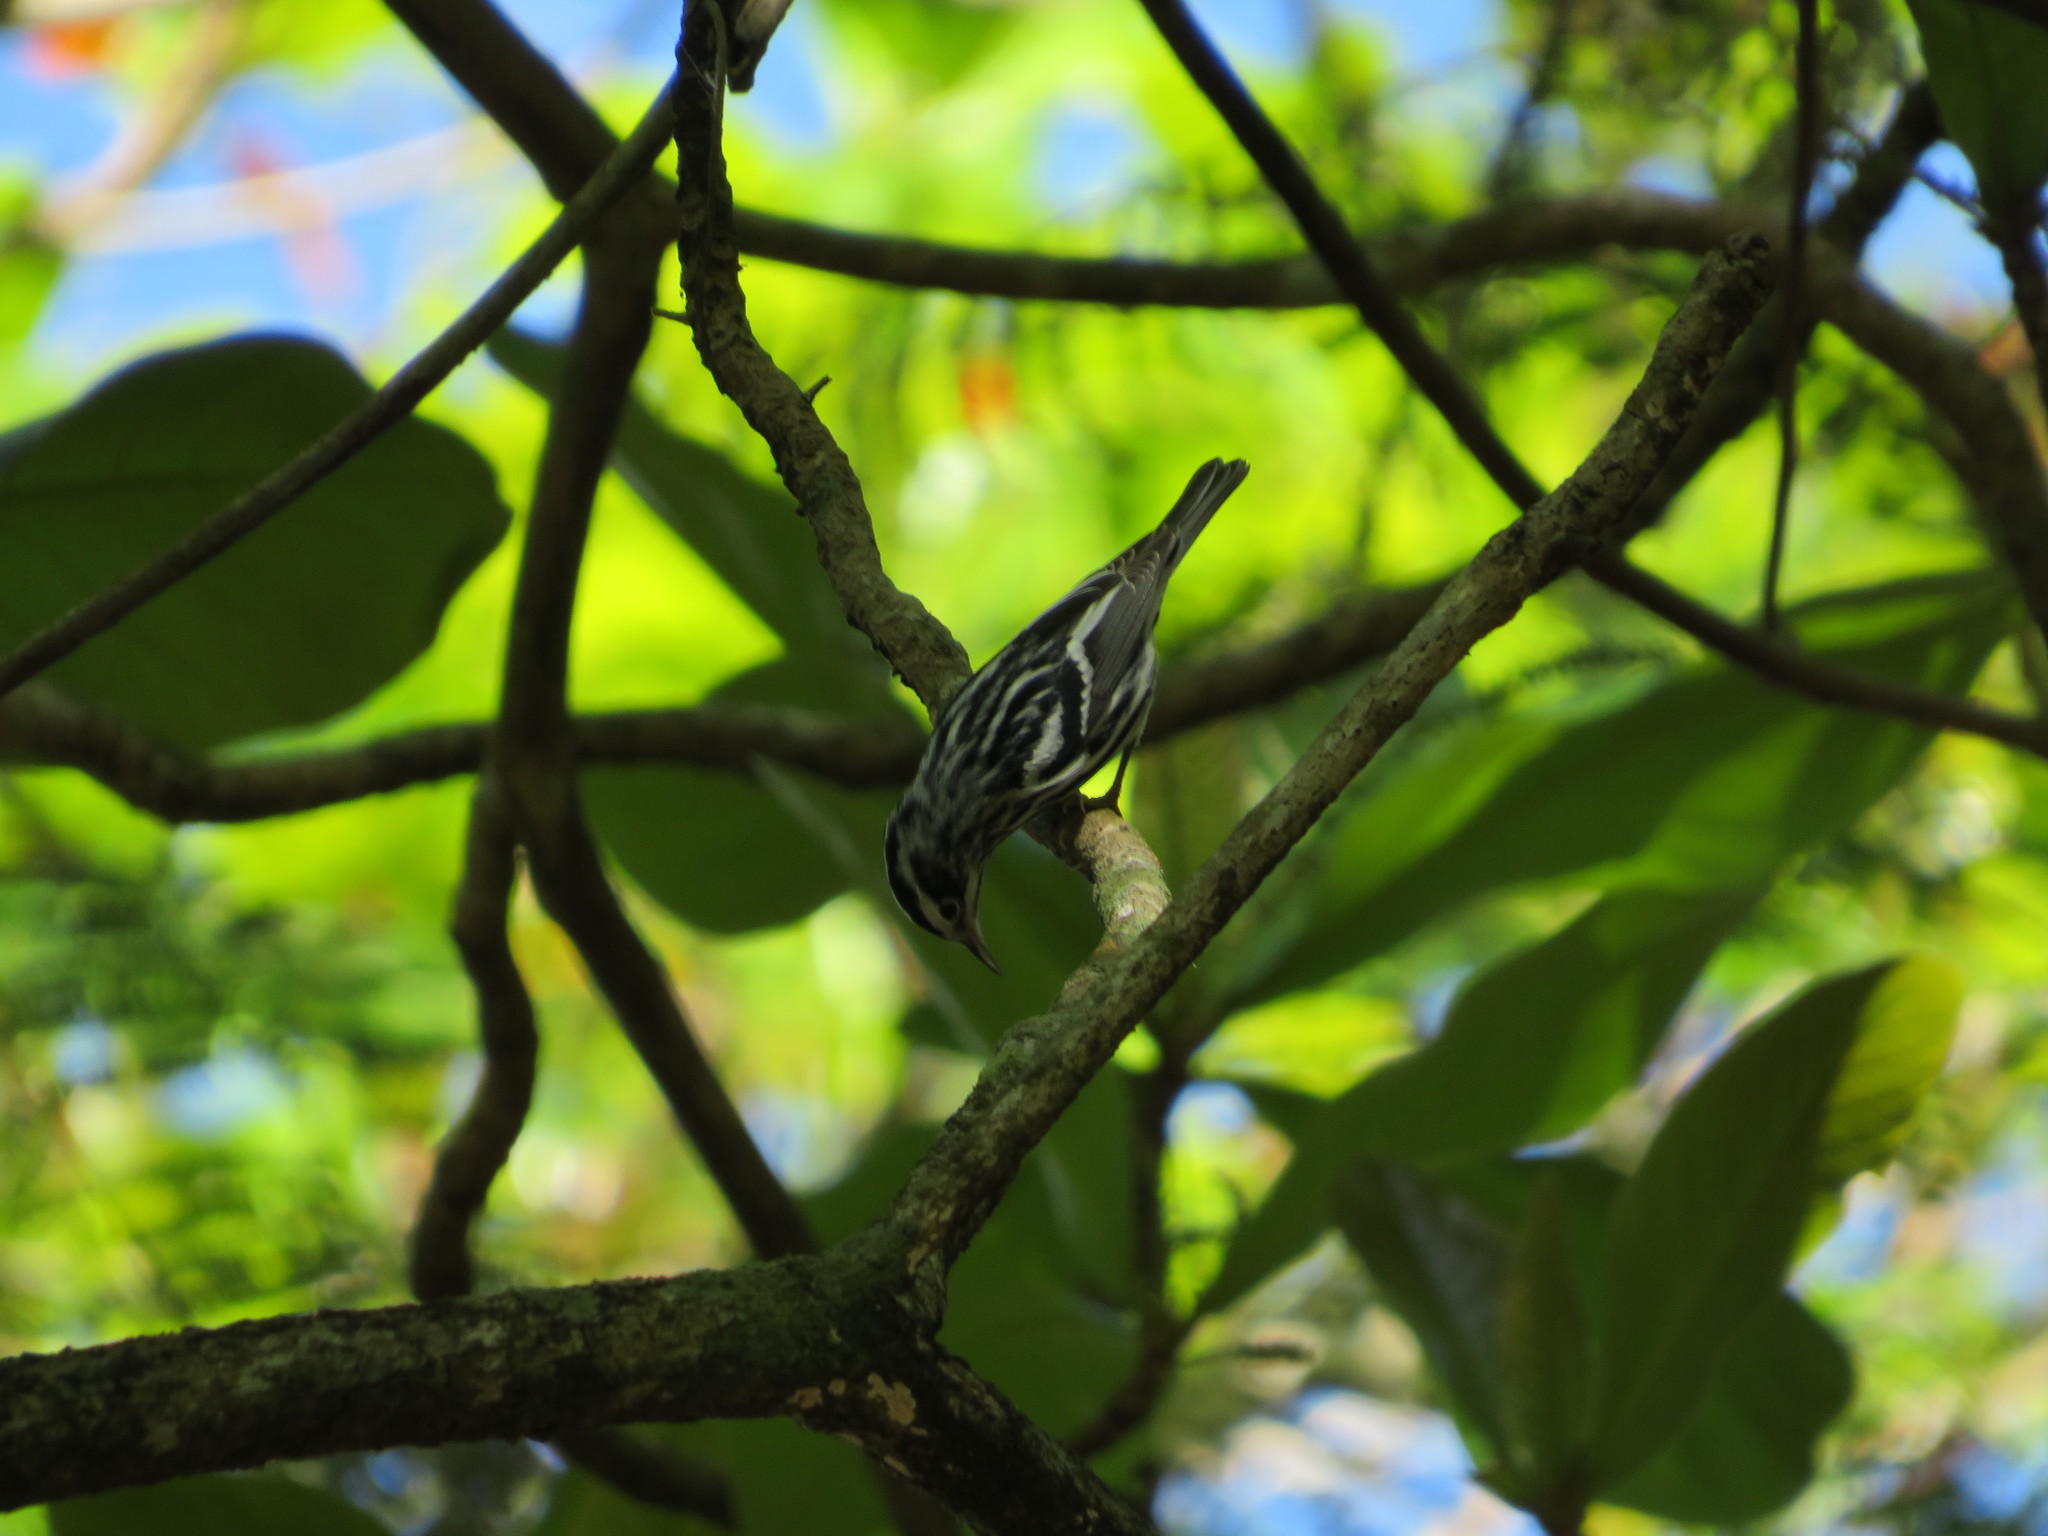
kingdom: Animalia
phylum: Chordata
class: Aves
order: Passeriformes
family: Parulidae
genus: Mniotilta
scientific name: Mniotilta varia
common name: Black-and-white warbler
